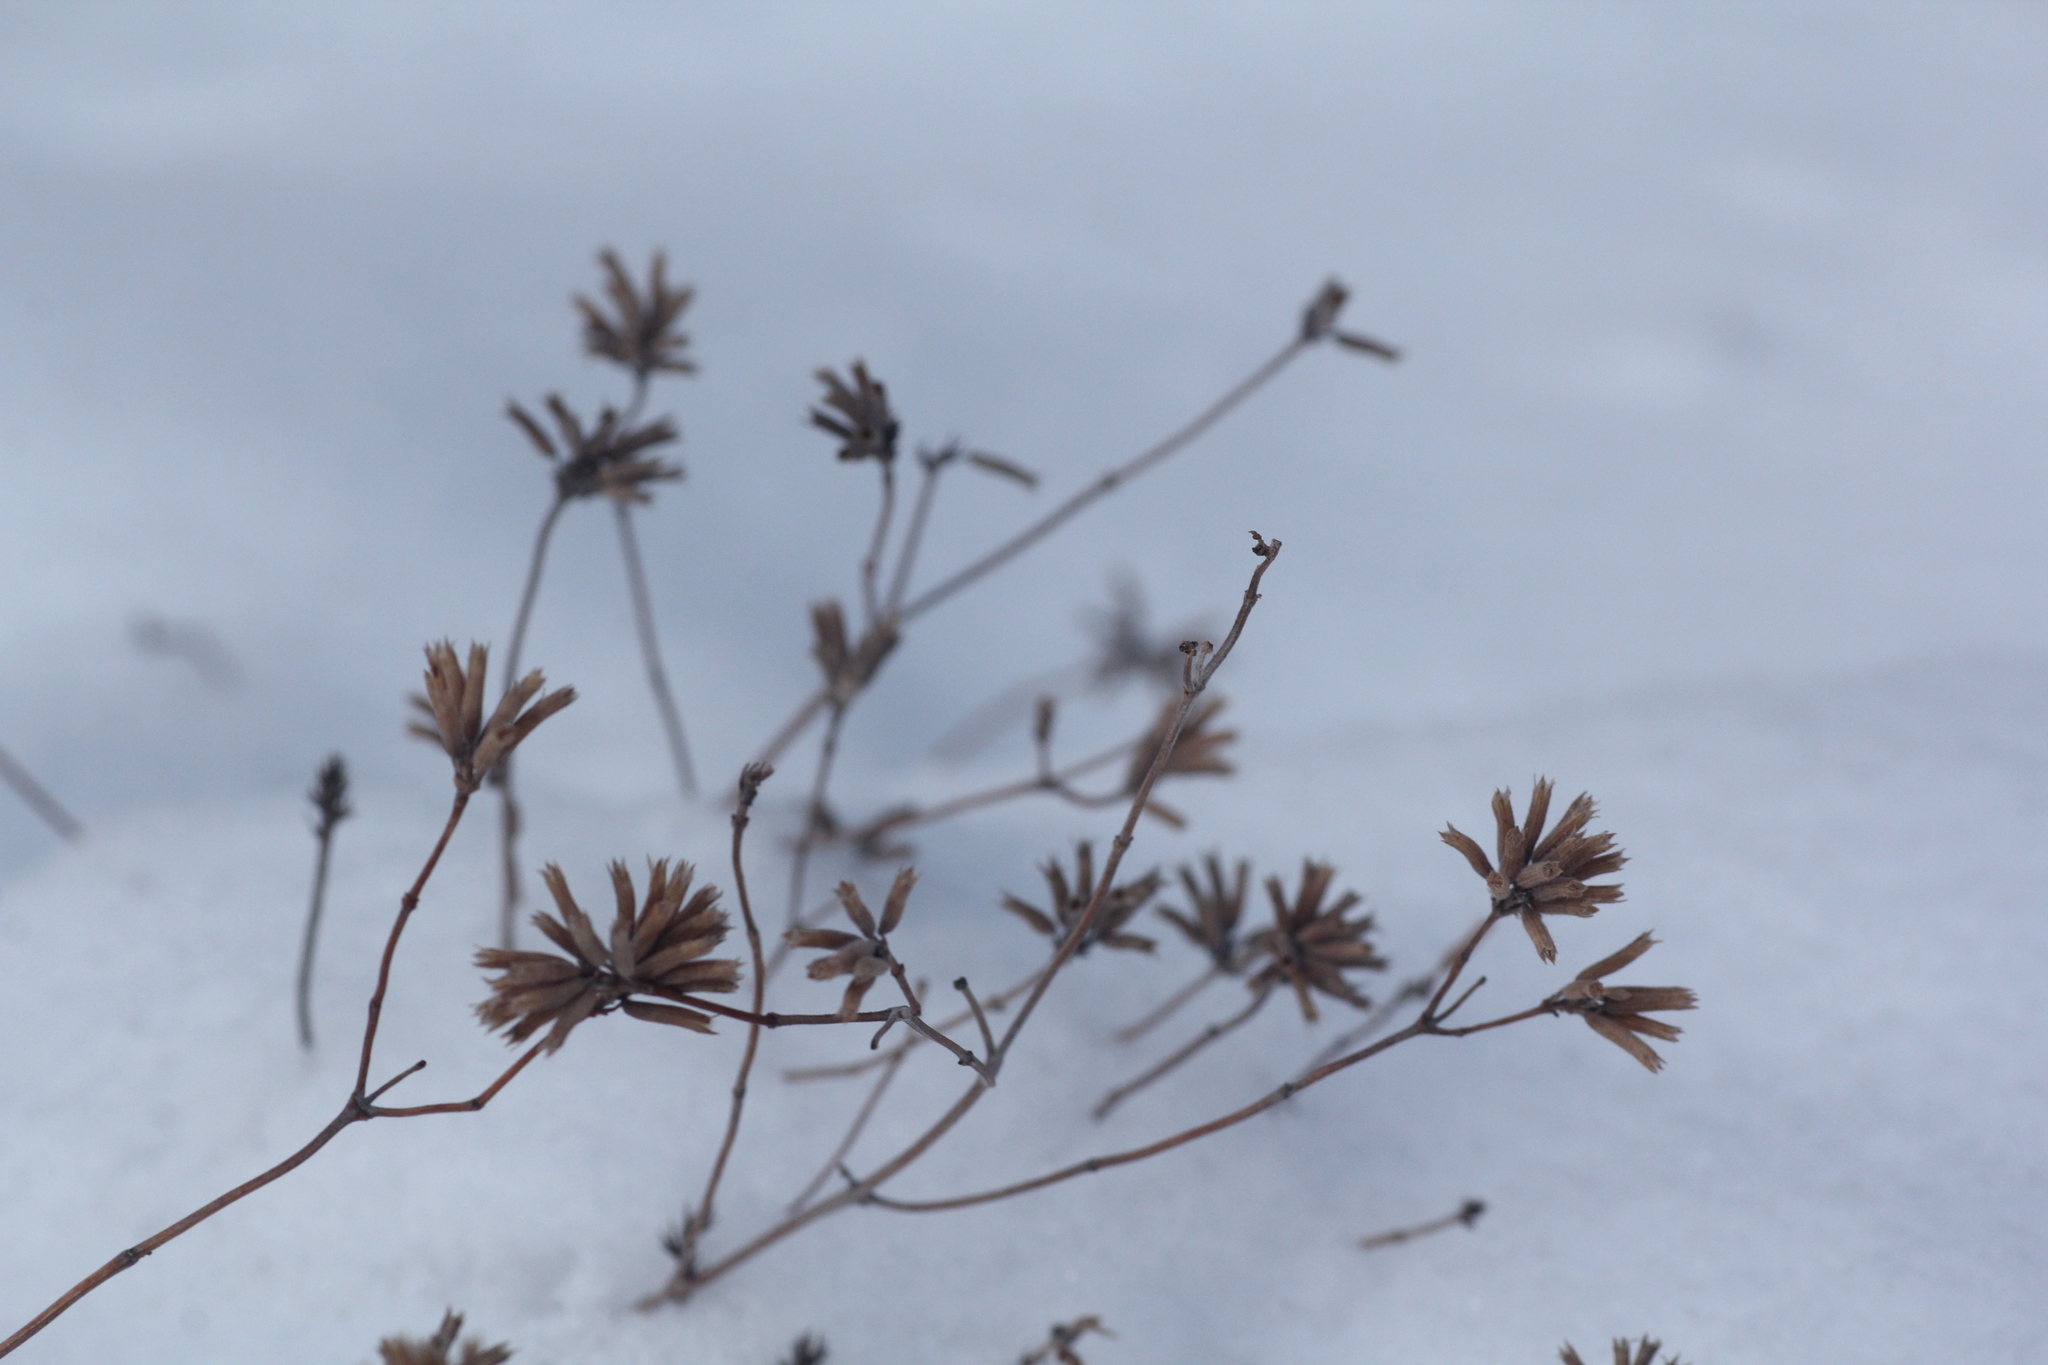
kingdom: Plantae
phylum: Tracheophyta
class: Magnoliopsida
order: Lamiales
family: Lamiaceae
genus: Ziziphora
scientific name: Ziziphora clinopodioides
